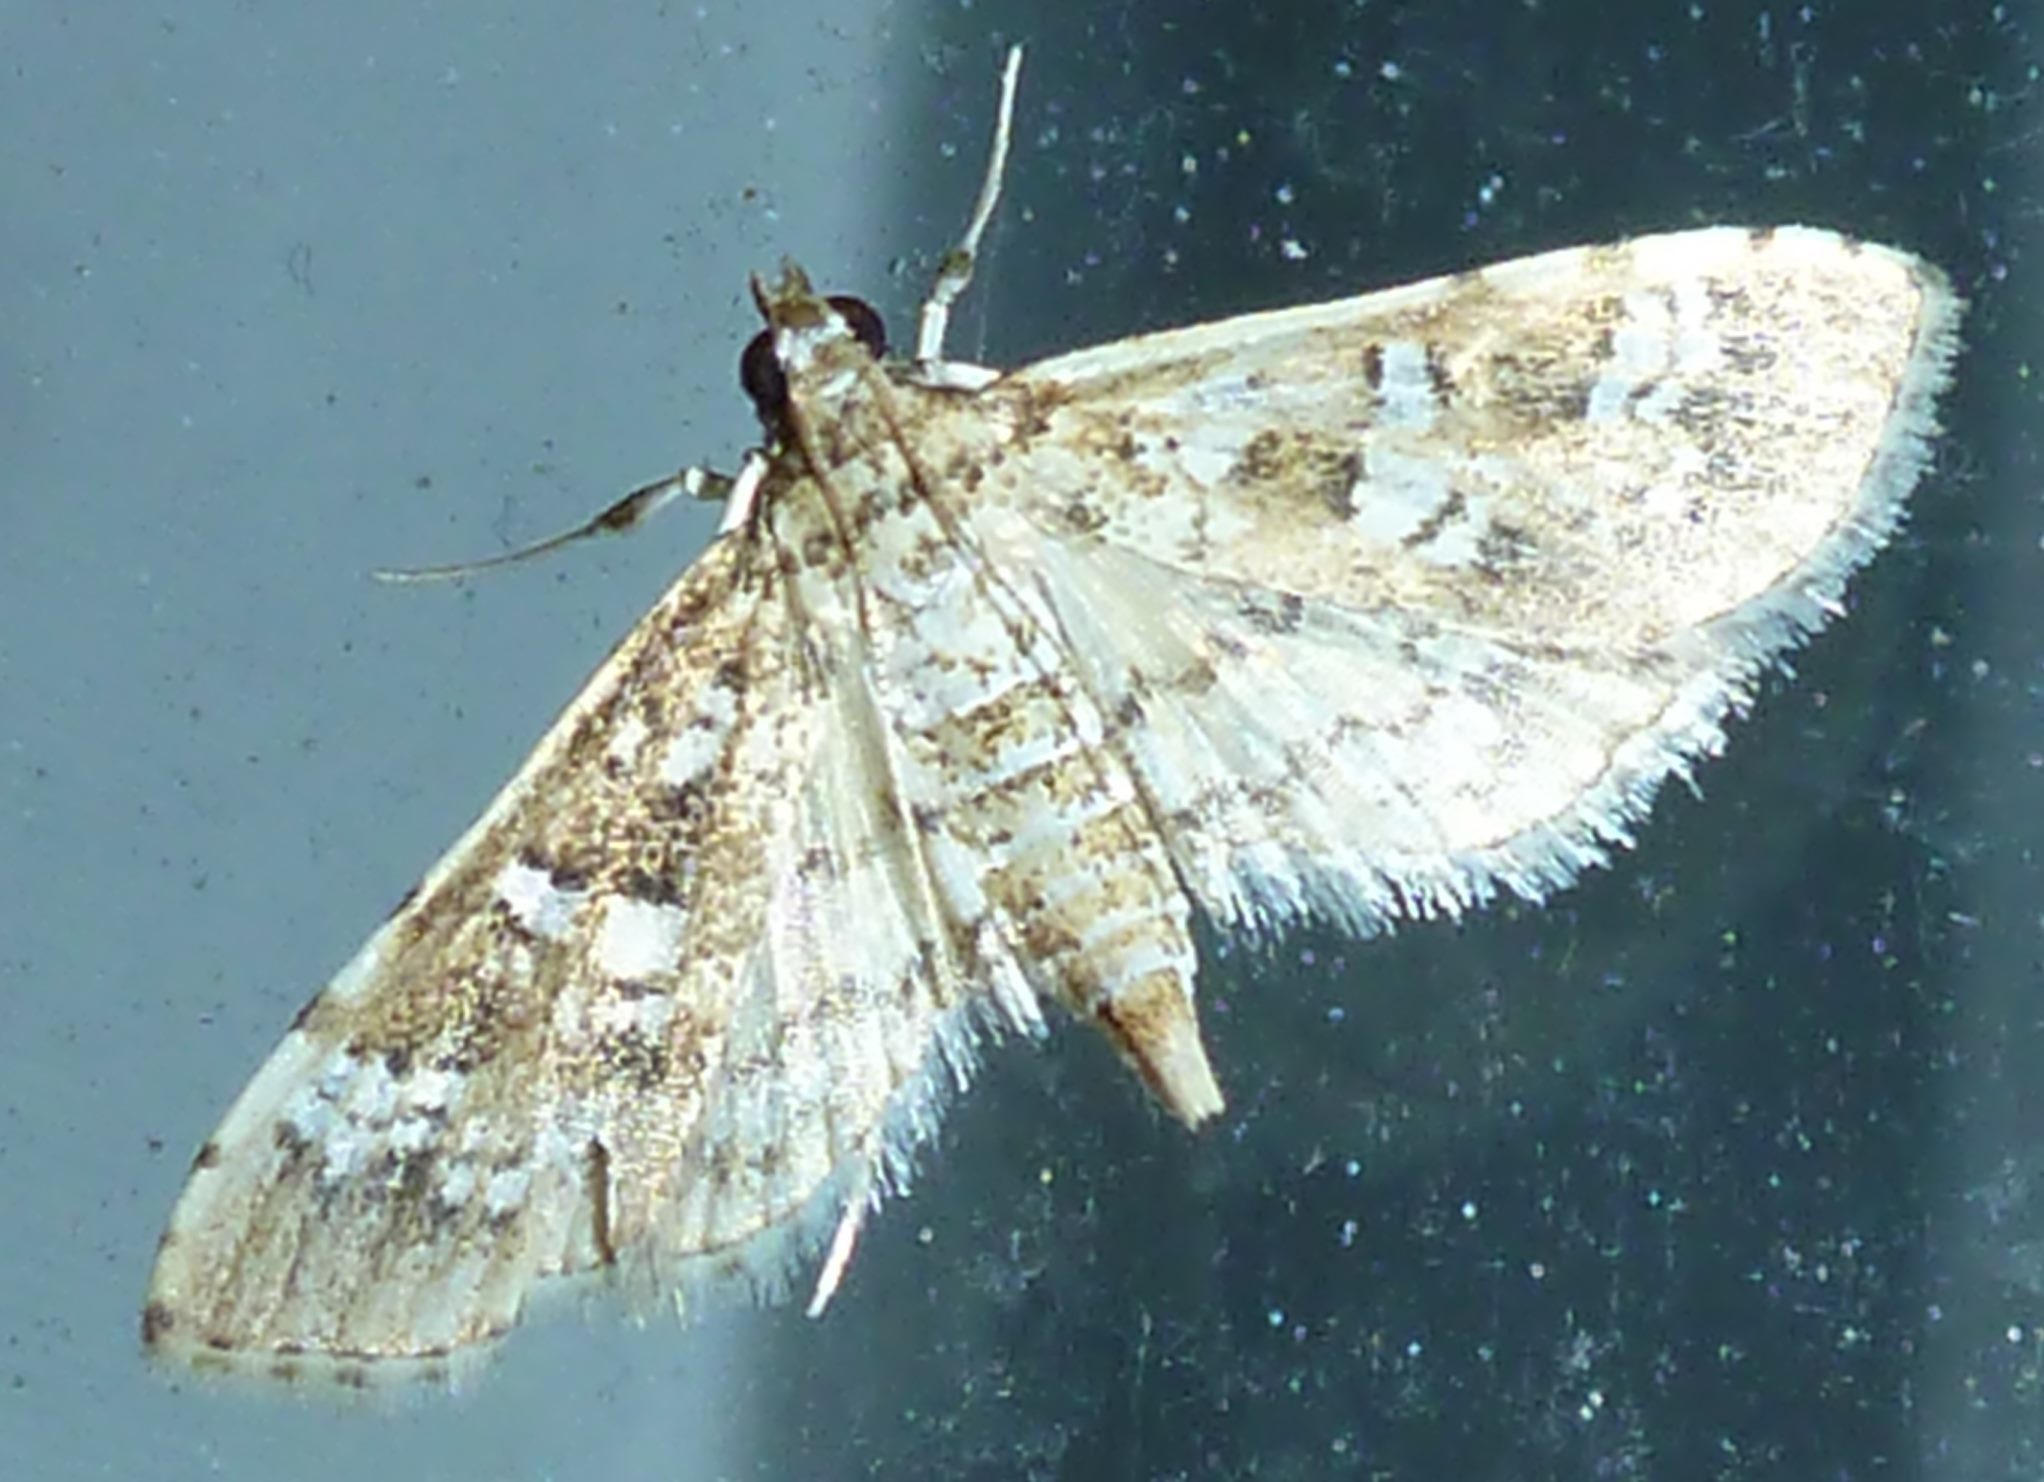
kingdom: Animalia
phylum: Arthropoda
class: Insecta
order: Lepidoptera
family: Crambidae
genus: Samea
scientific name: Samea multiplicalis
